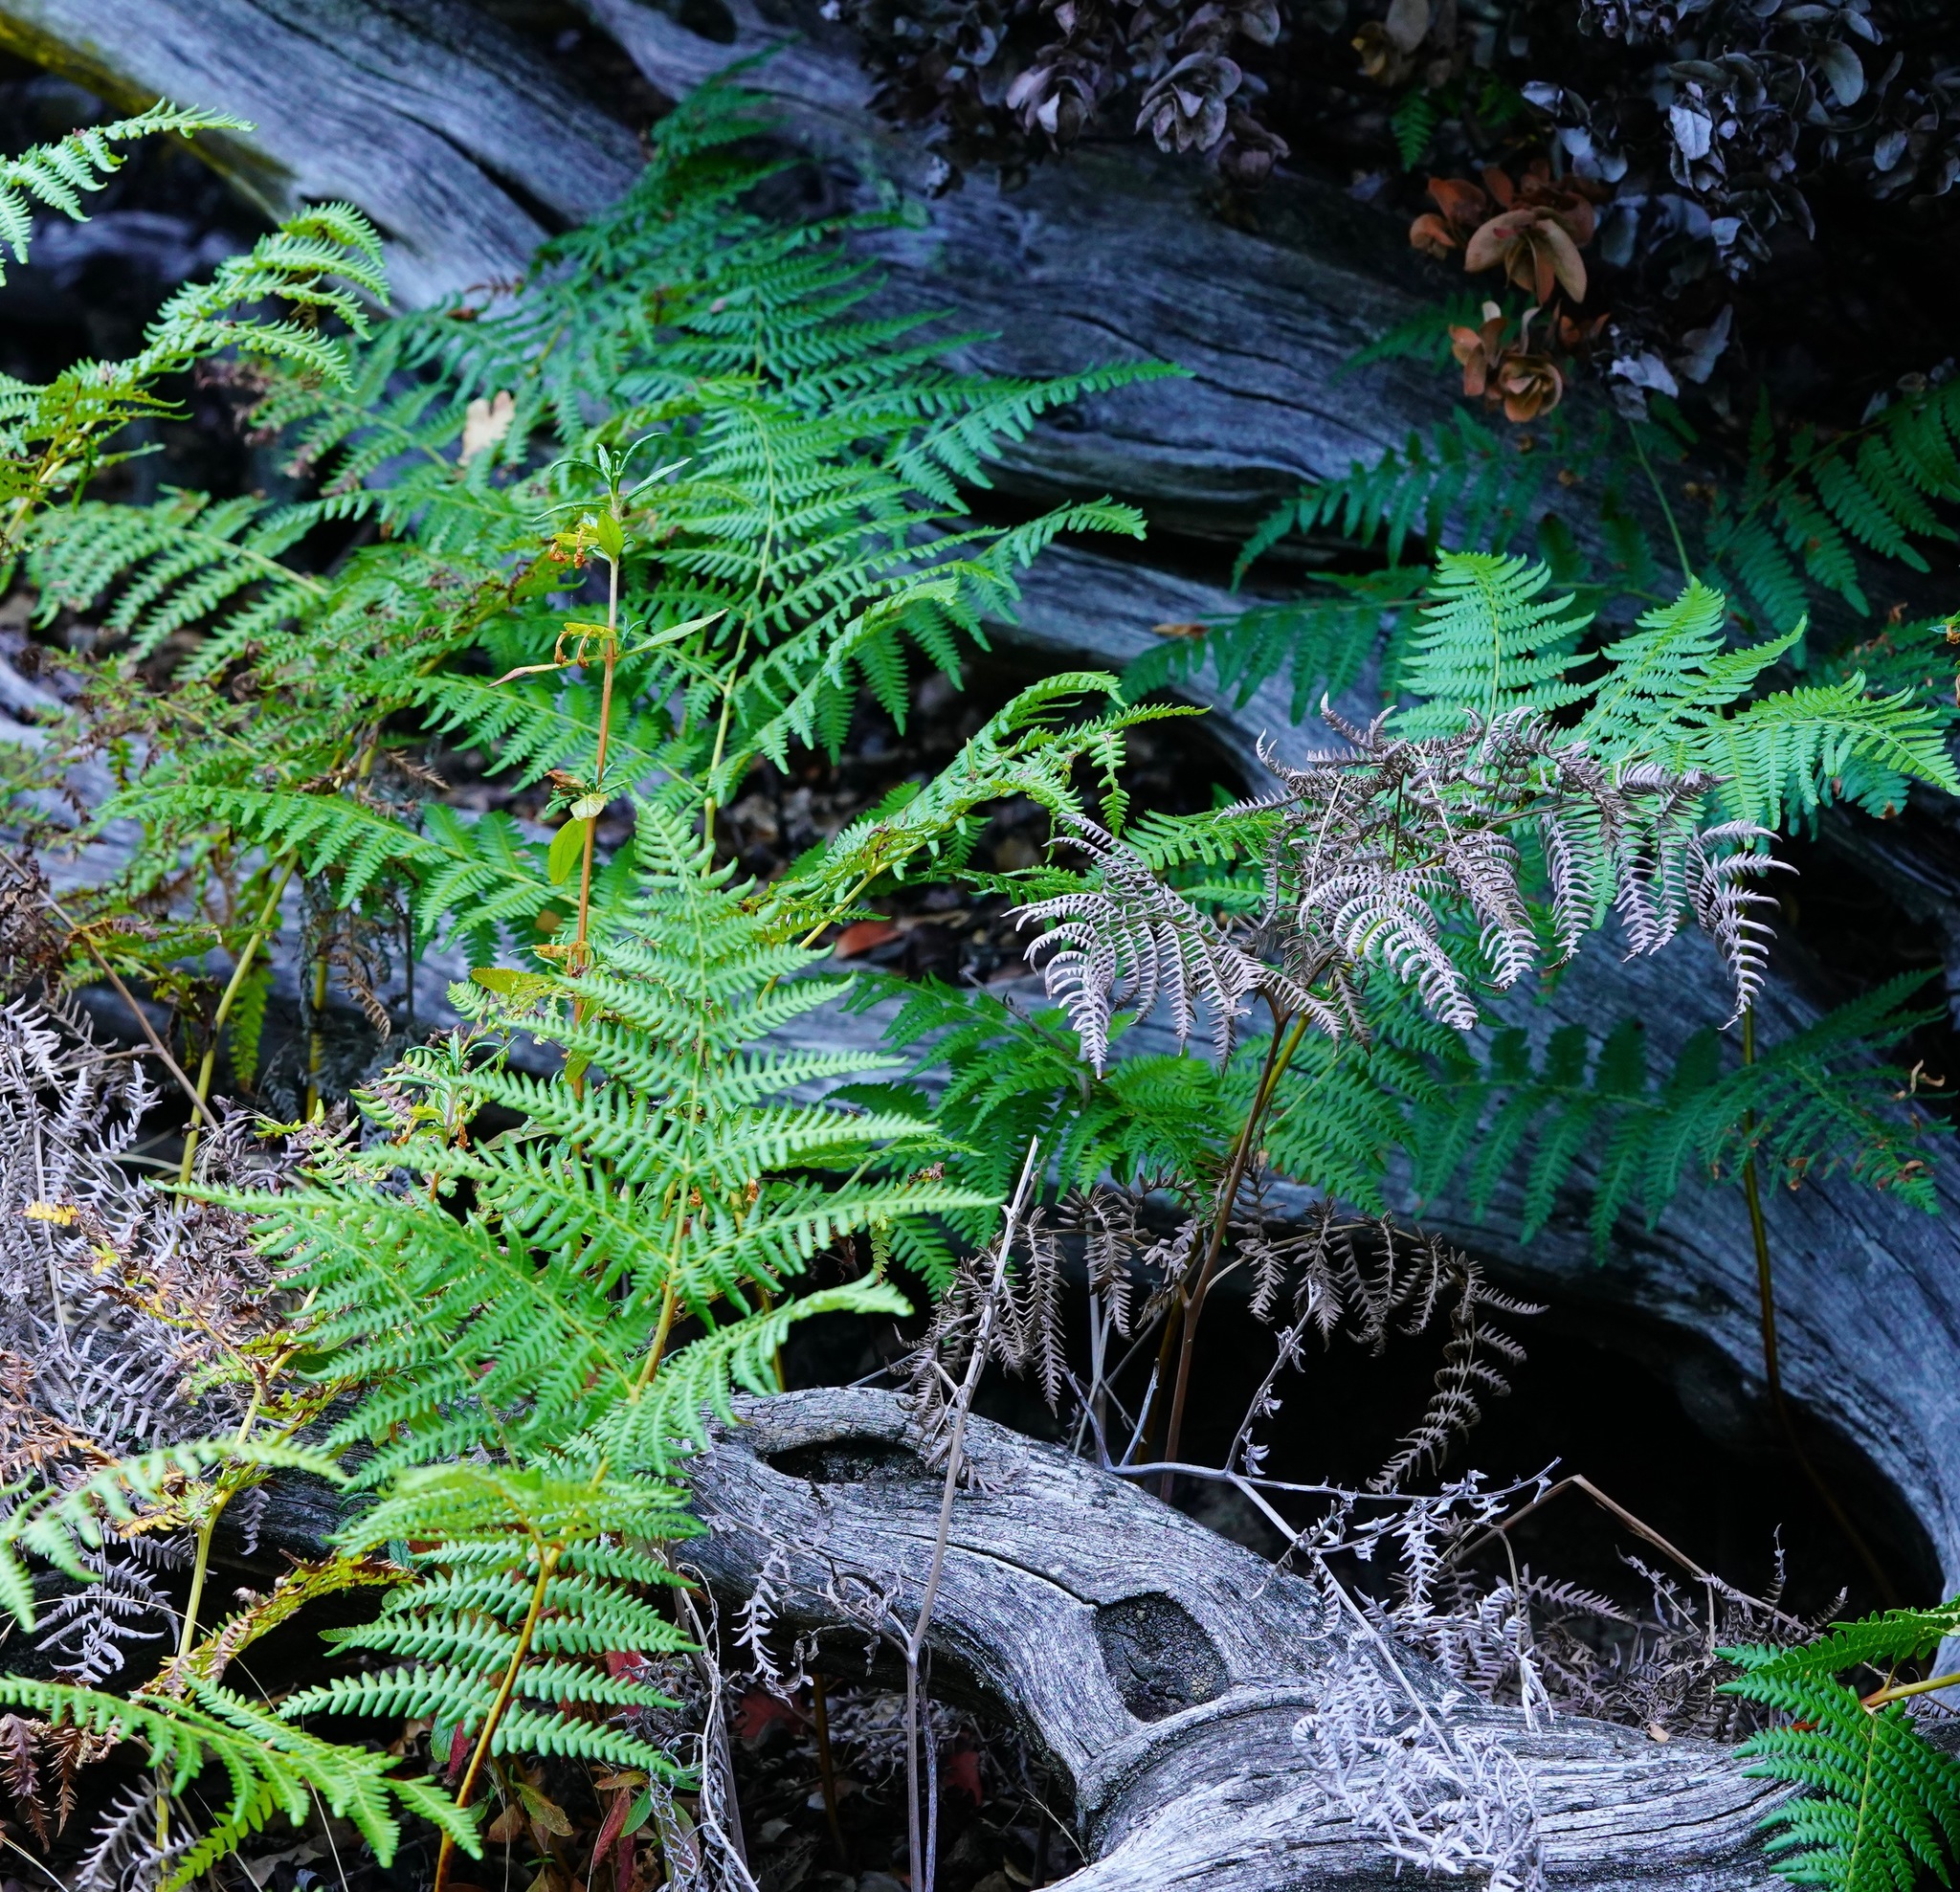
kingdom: Plantae
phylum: Tracheophyta
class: Polypodiopsida
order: Polypodiales
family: Dennstaedtiaceae
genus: Pteridium
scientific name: Pteridium aquilinum
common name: Bracken
